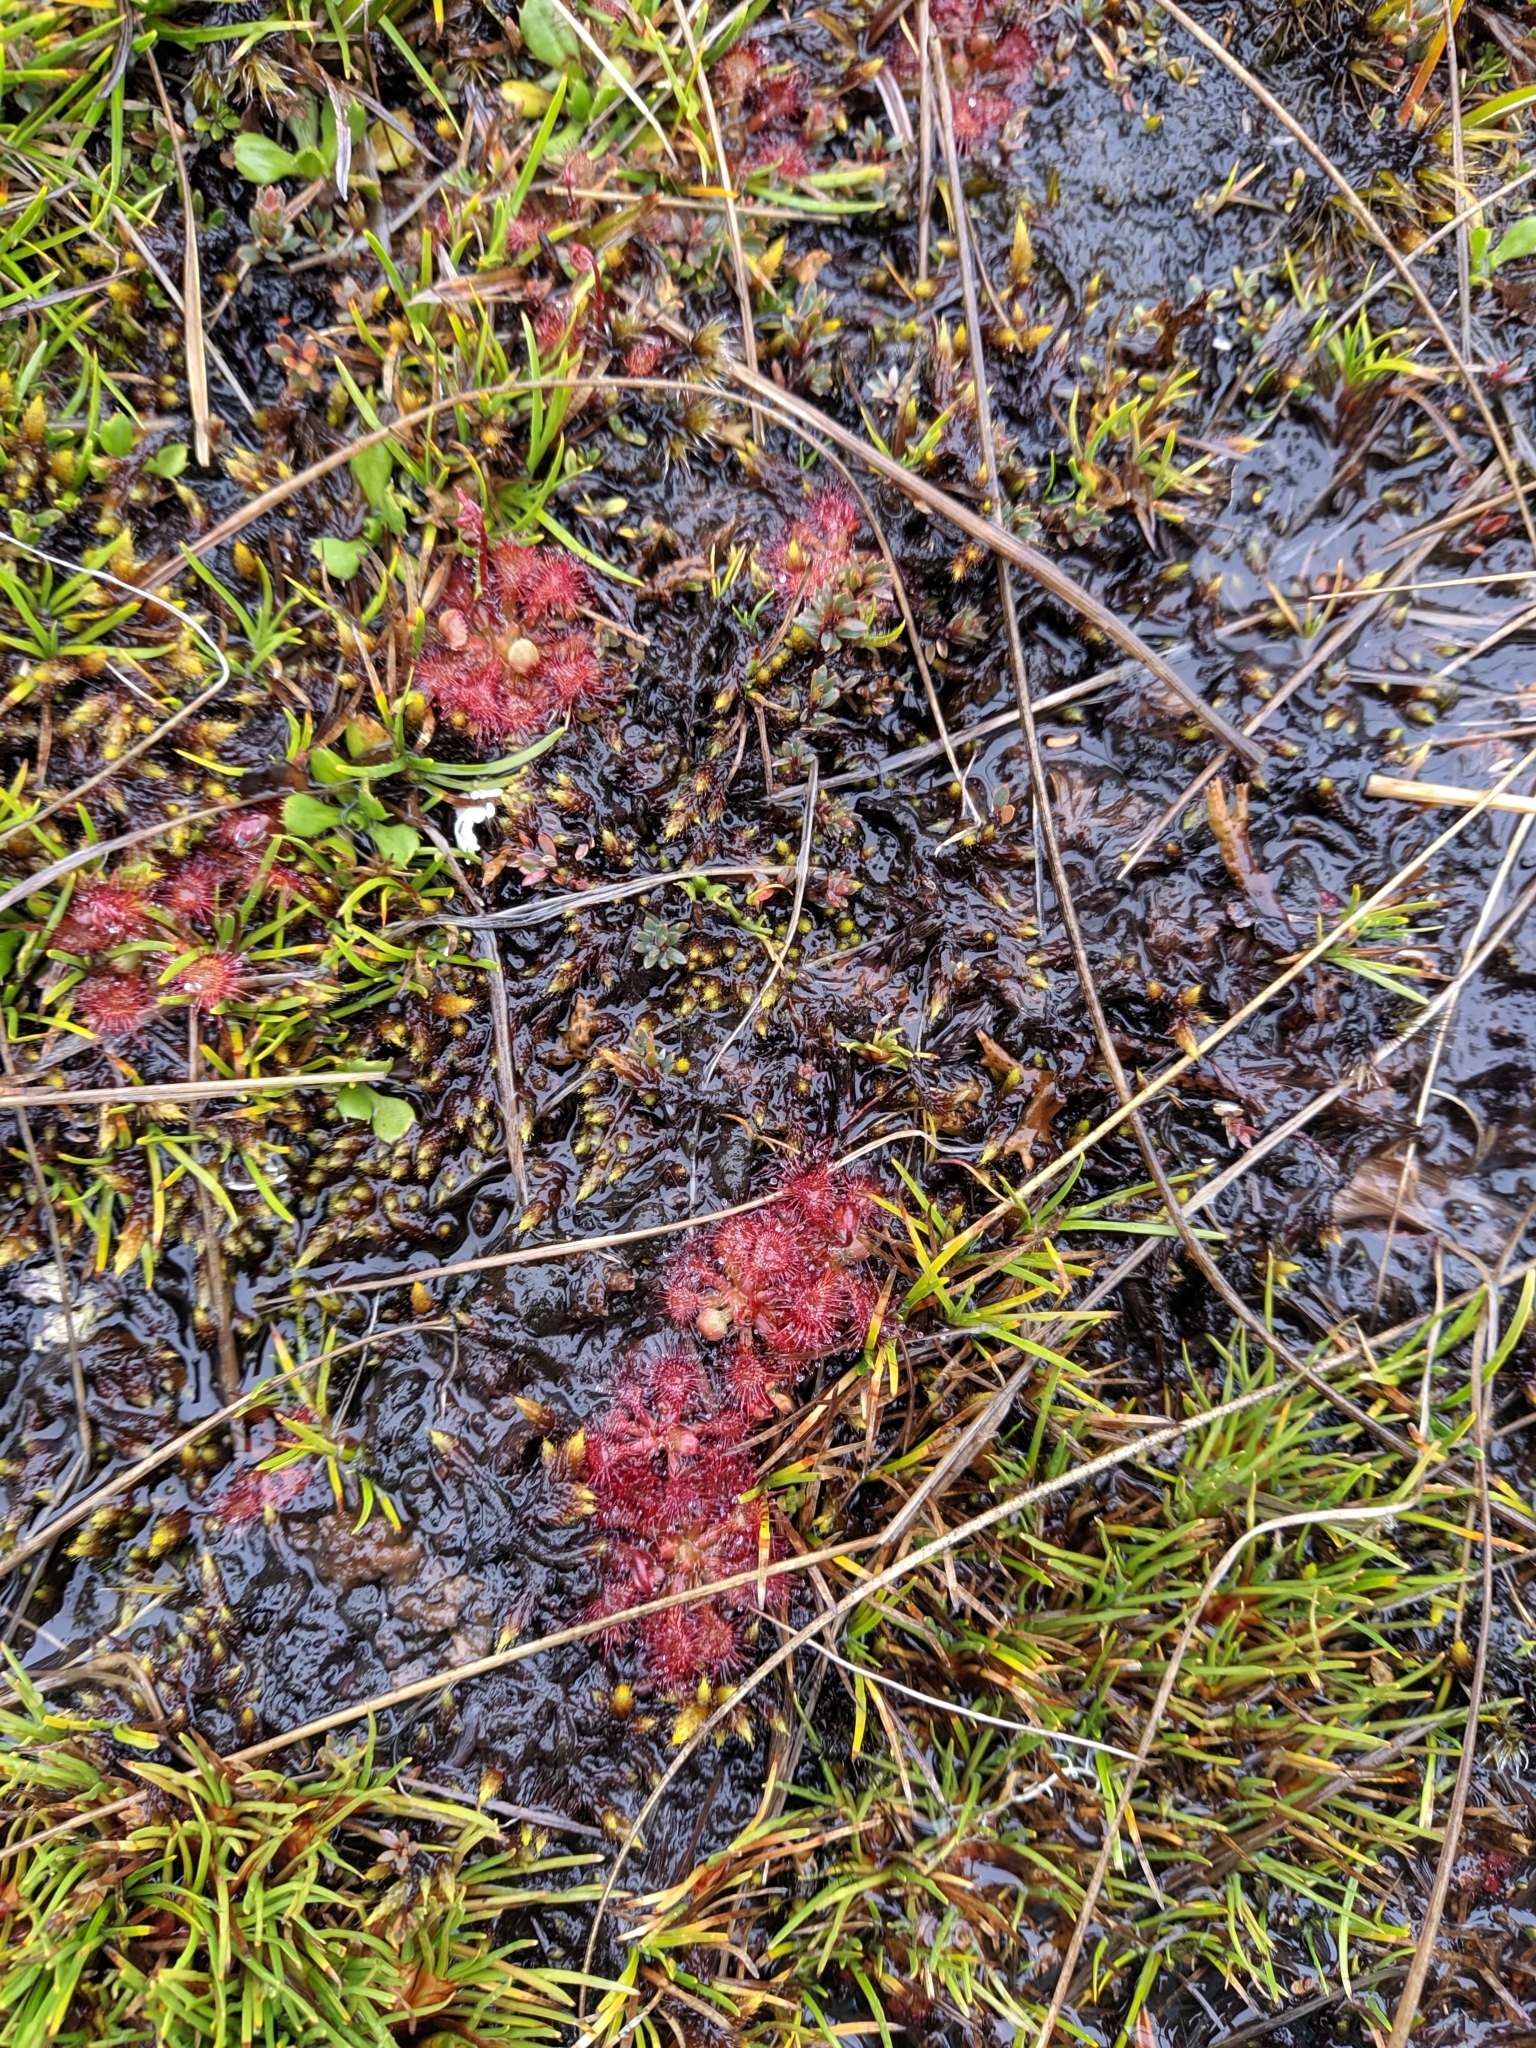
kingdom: Plantae
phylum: Tracheophyta
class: Magnoliopsida
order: Caryophyllales
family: Droseraceae
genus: Drosera
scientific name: Drosera spatulata
